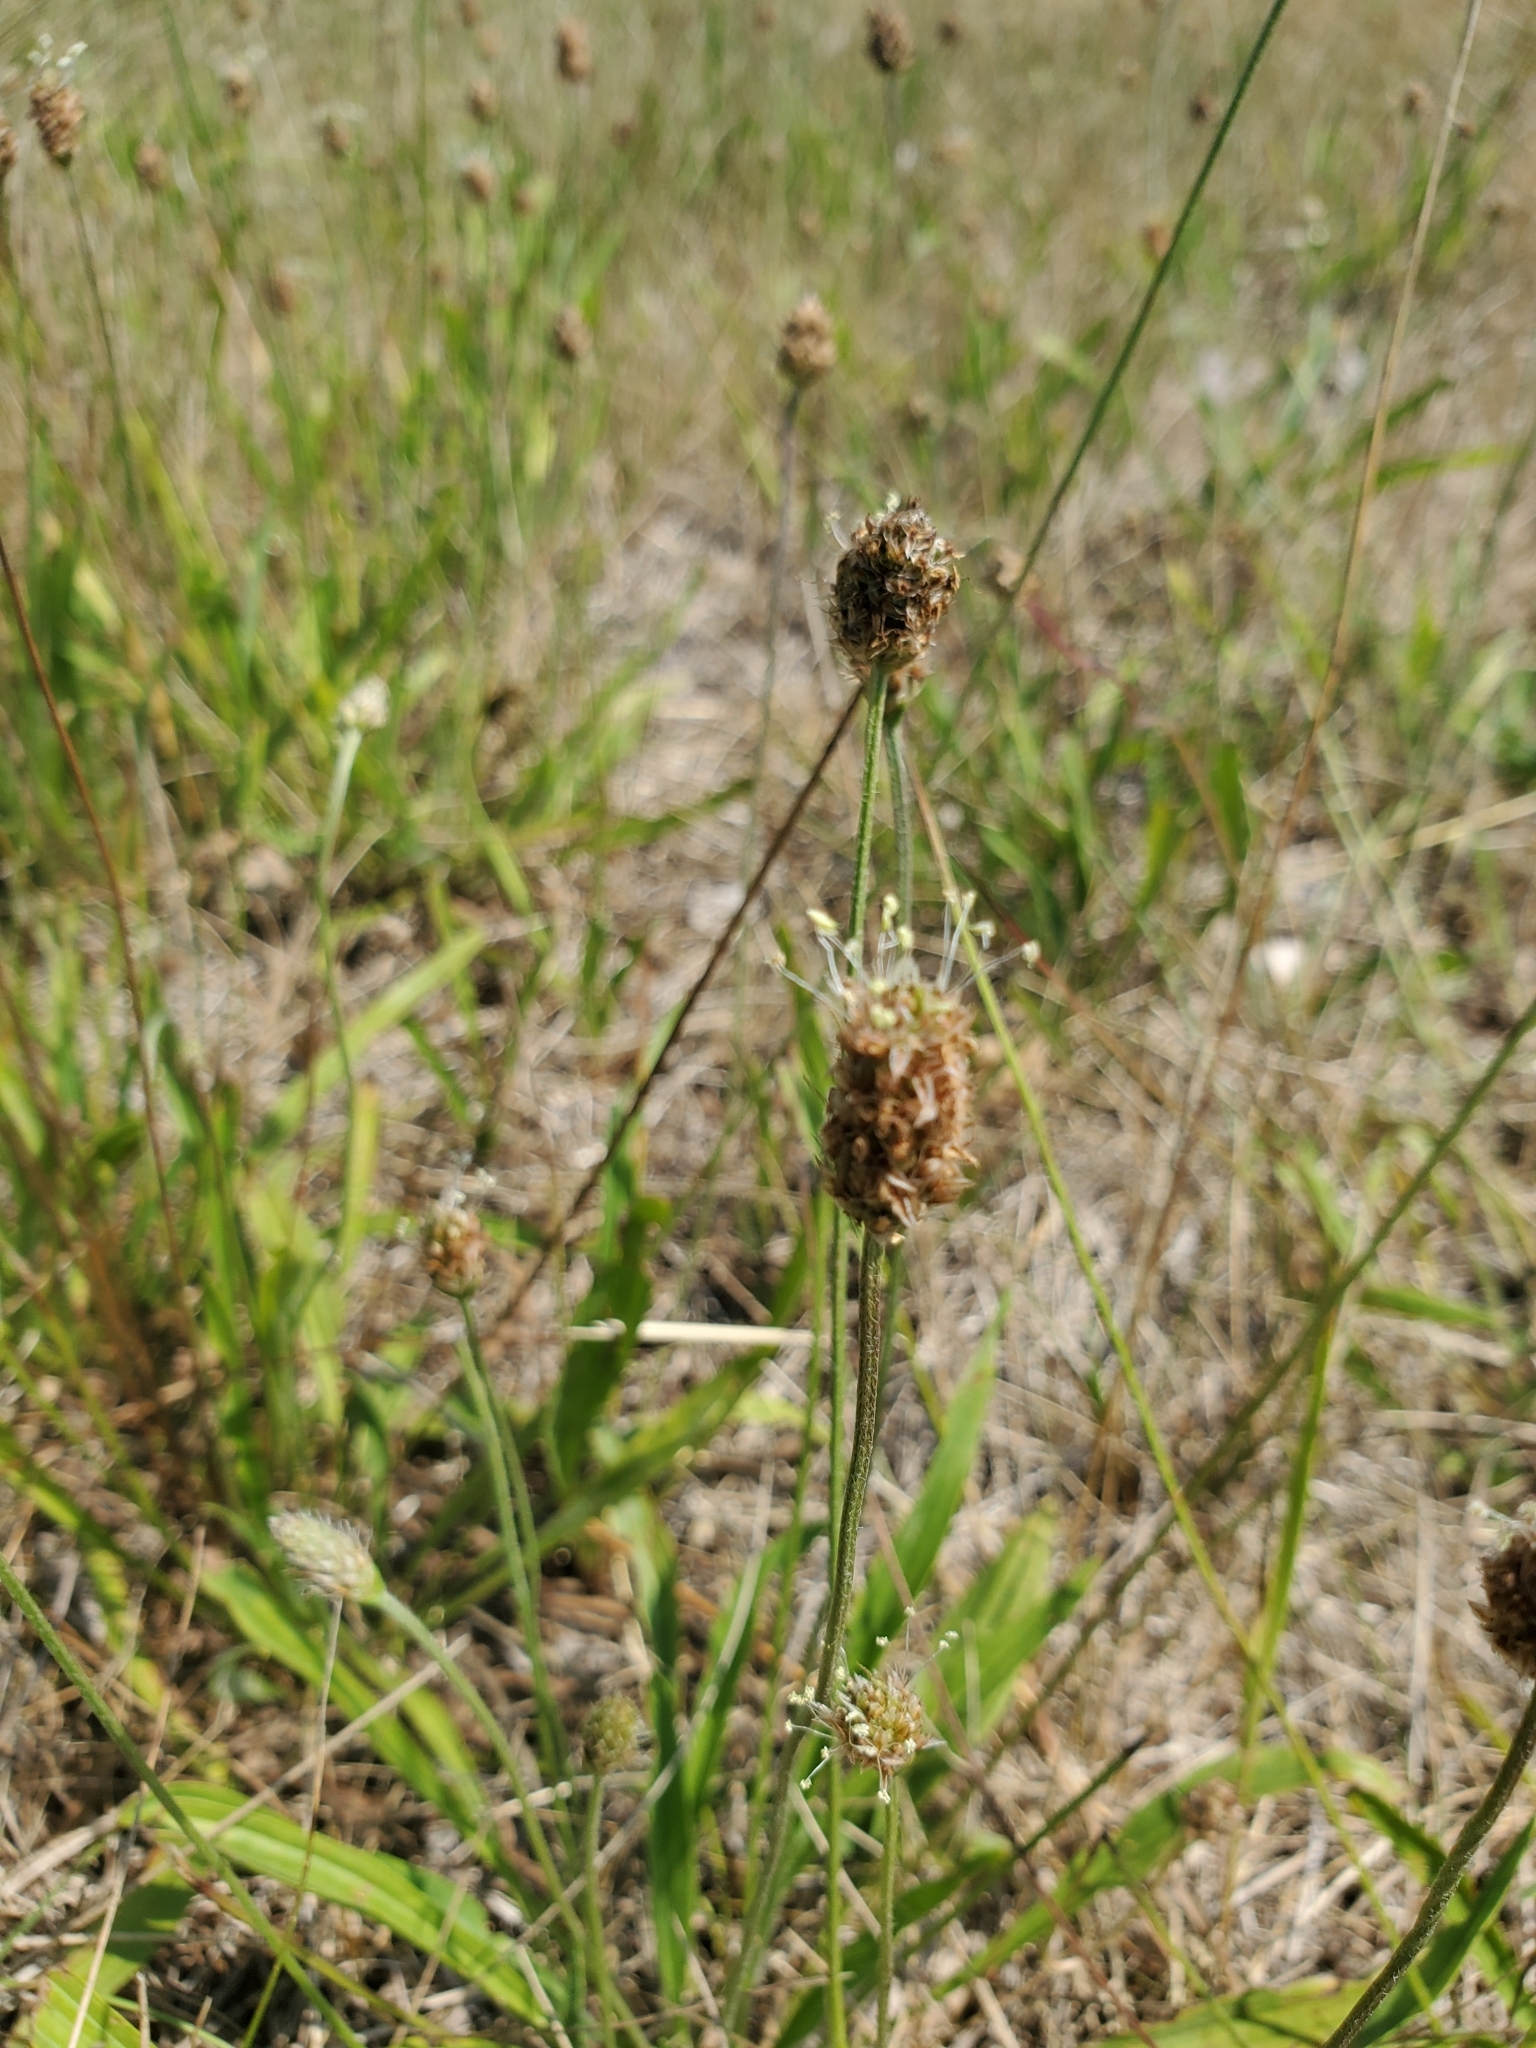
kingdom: Plantae
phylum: Tracheophyta
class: Magnoliopsida
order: Lamiales
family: Plantaginaceae
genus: Plantago
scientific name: Plantago lanceolata
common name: Ribwort plantain
